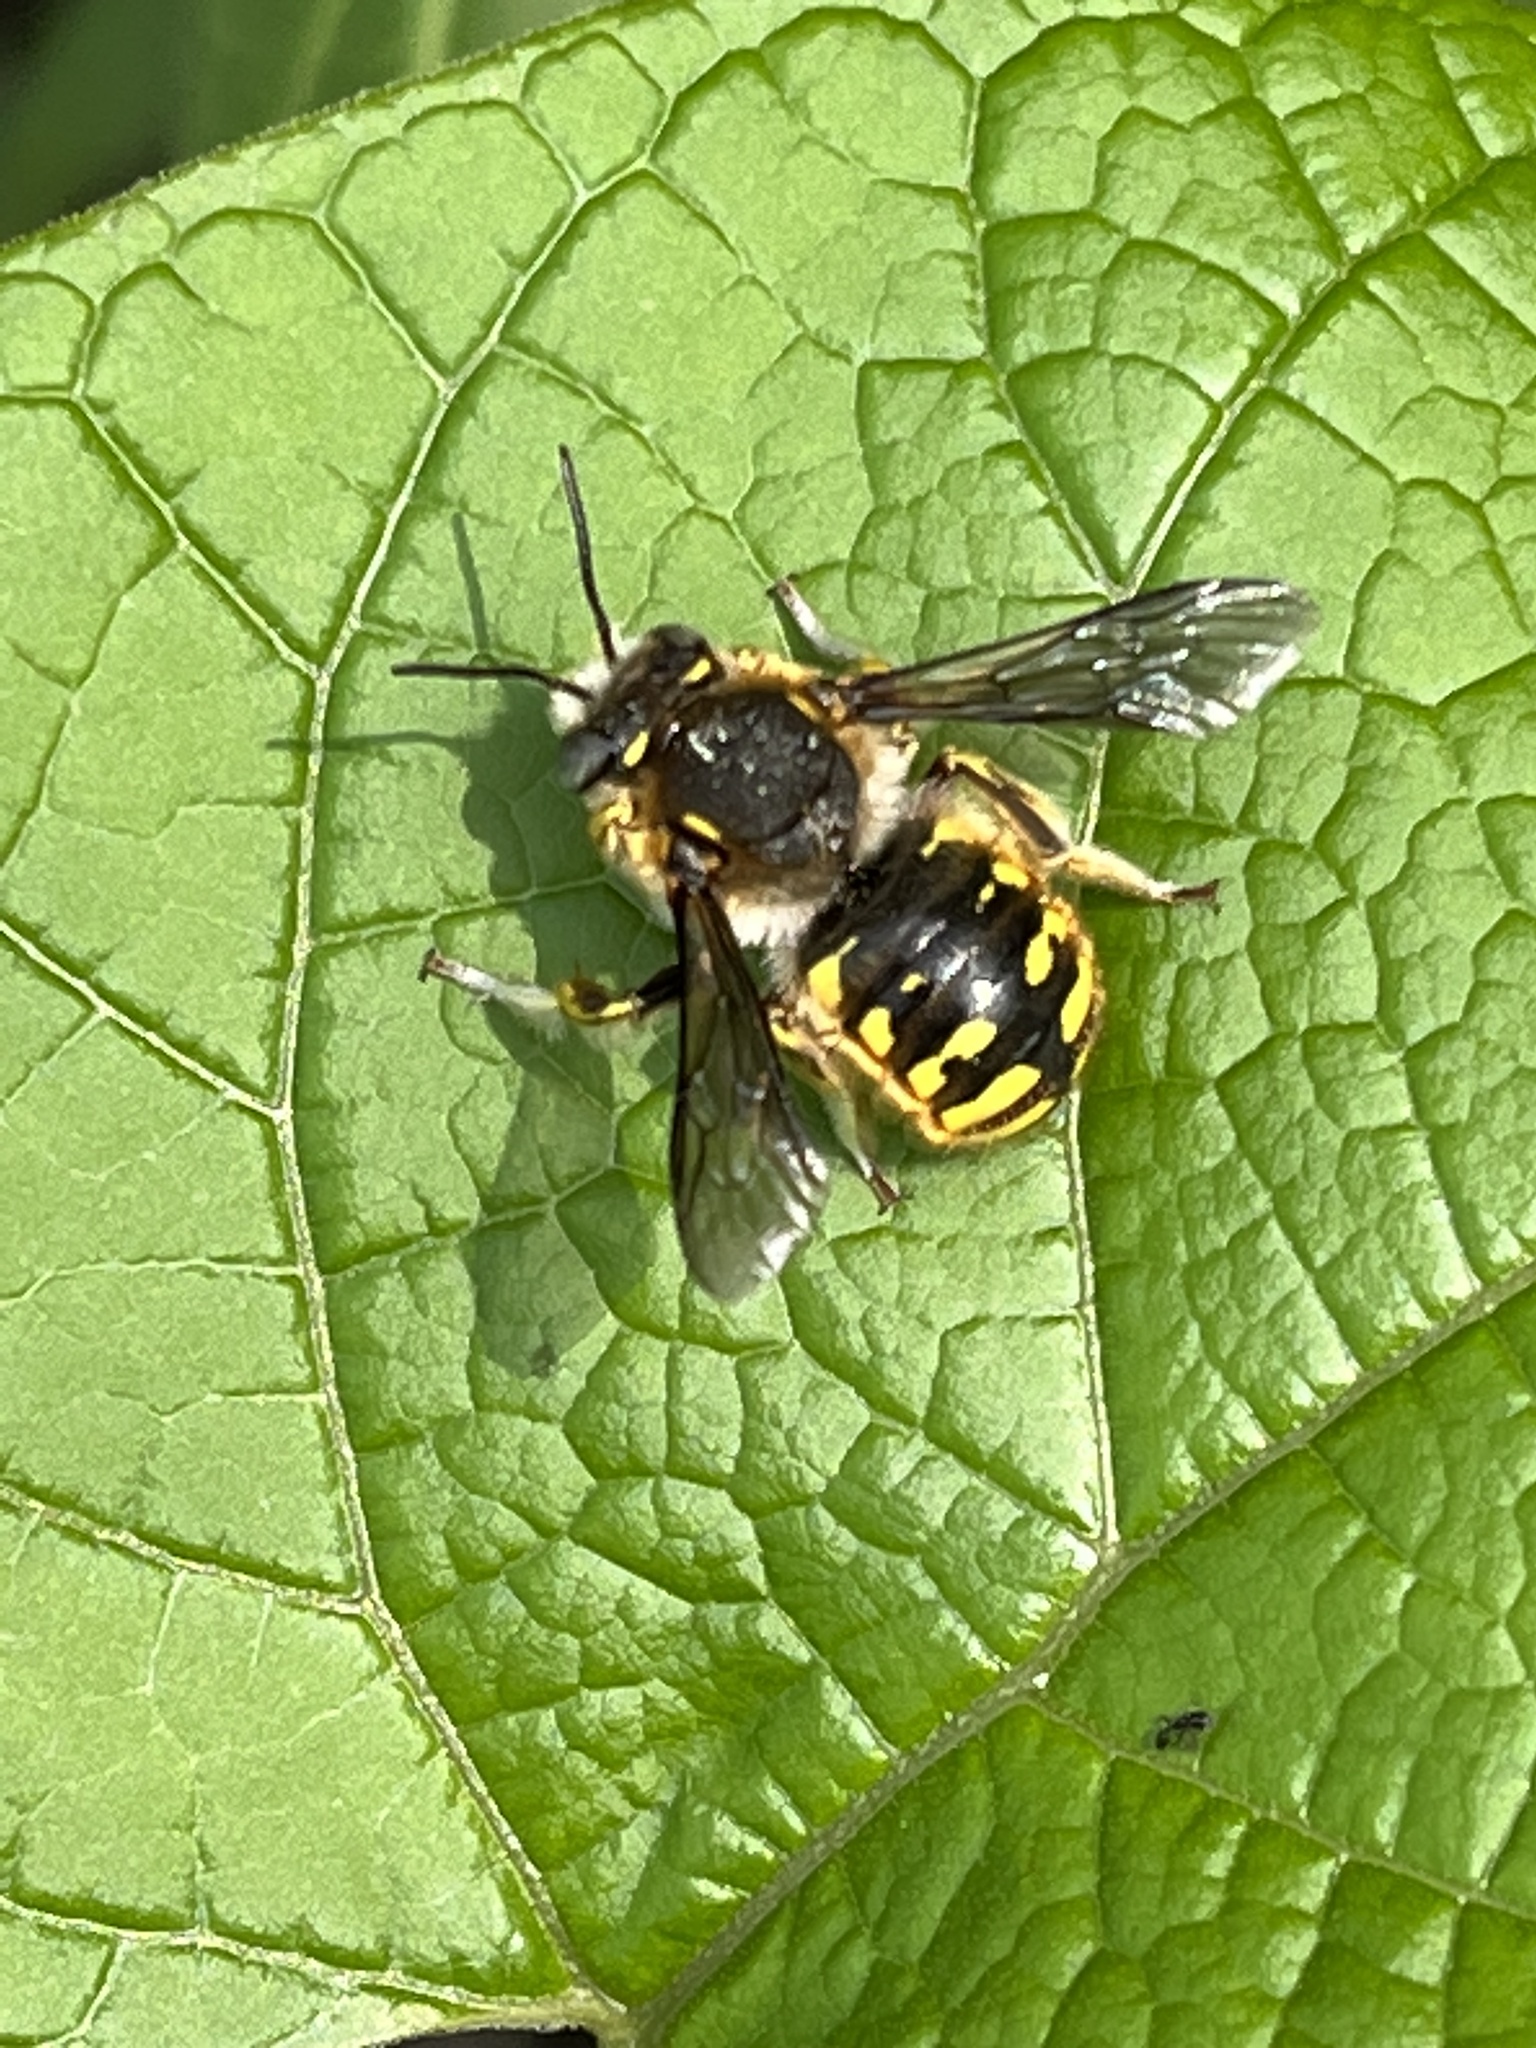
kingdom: Animalia
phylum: Arthropoda
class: Insecta
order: Hymenoptera
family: Megachilidae
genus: Anthidium
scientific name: Anthidium manicatum
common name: Wool carder bee
